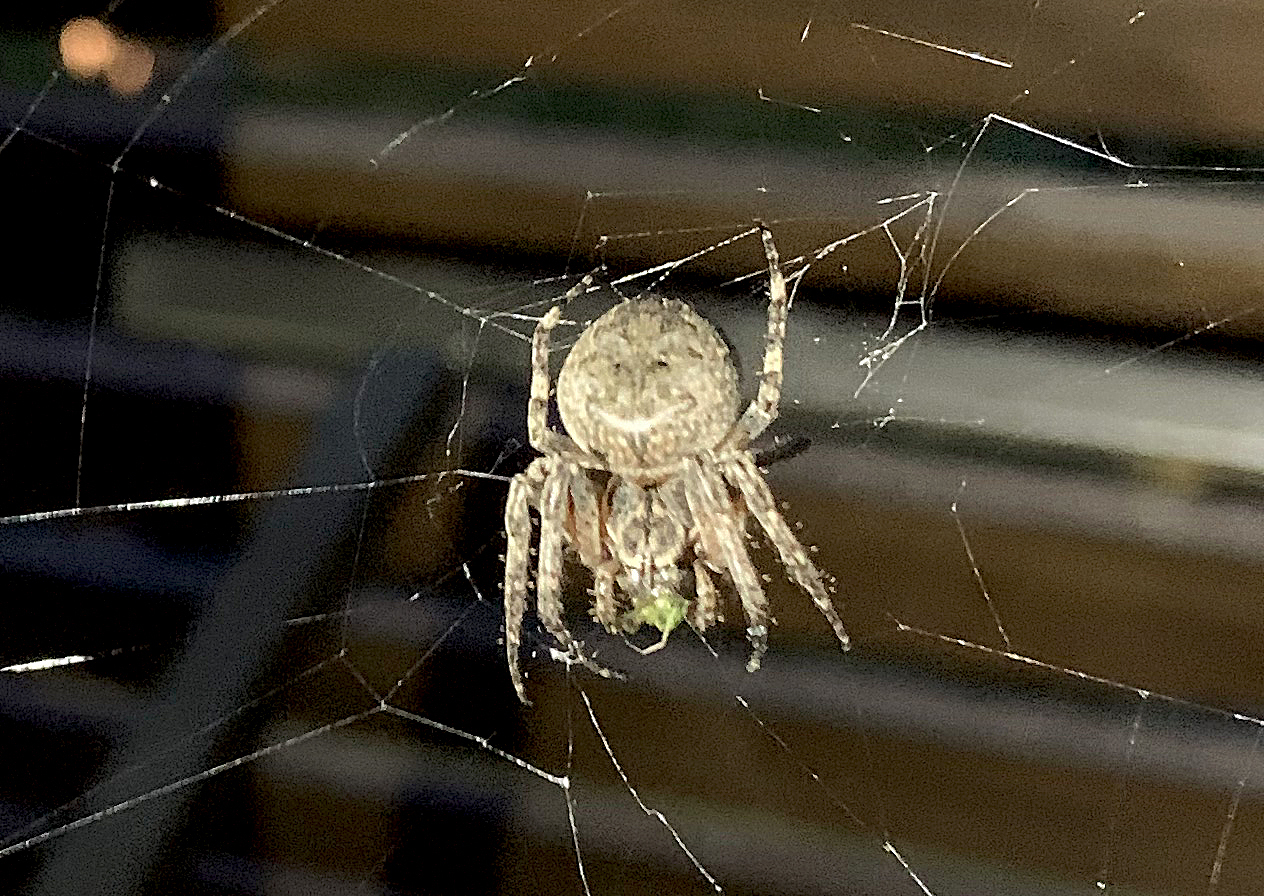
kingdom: Animalia
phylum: Arthropoda
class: Arachnida
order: Araneae
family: Araneidae
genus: Larinioides
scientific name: Larinioides ixobolus
